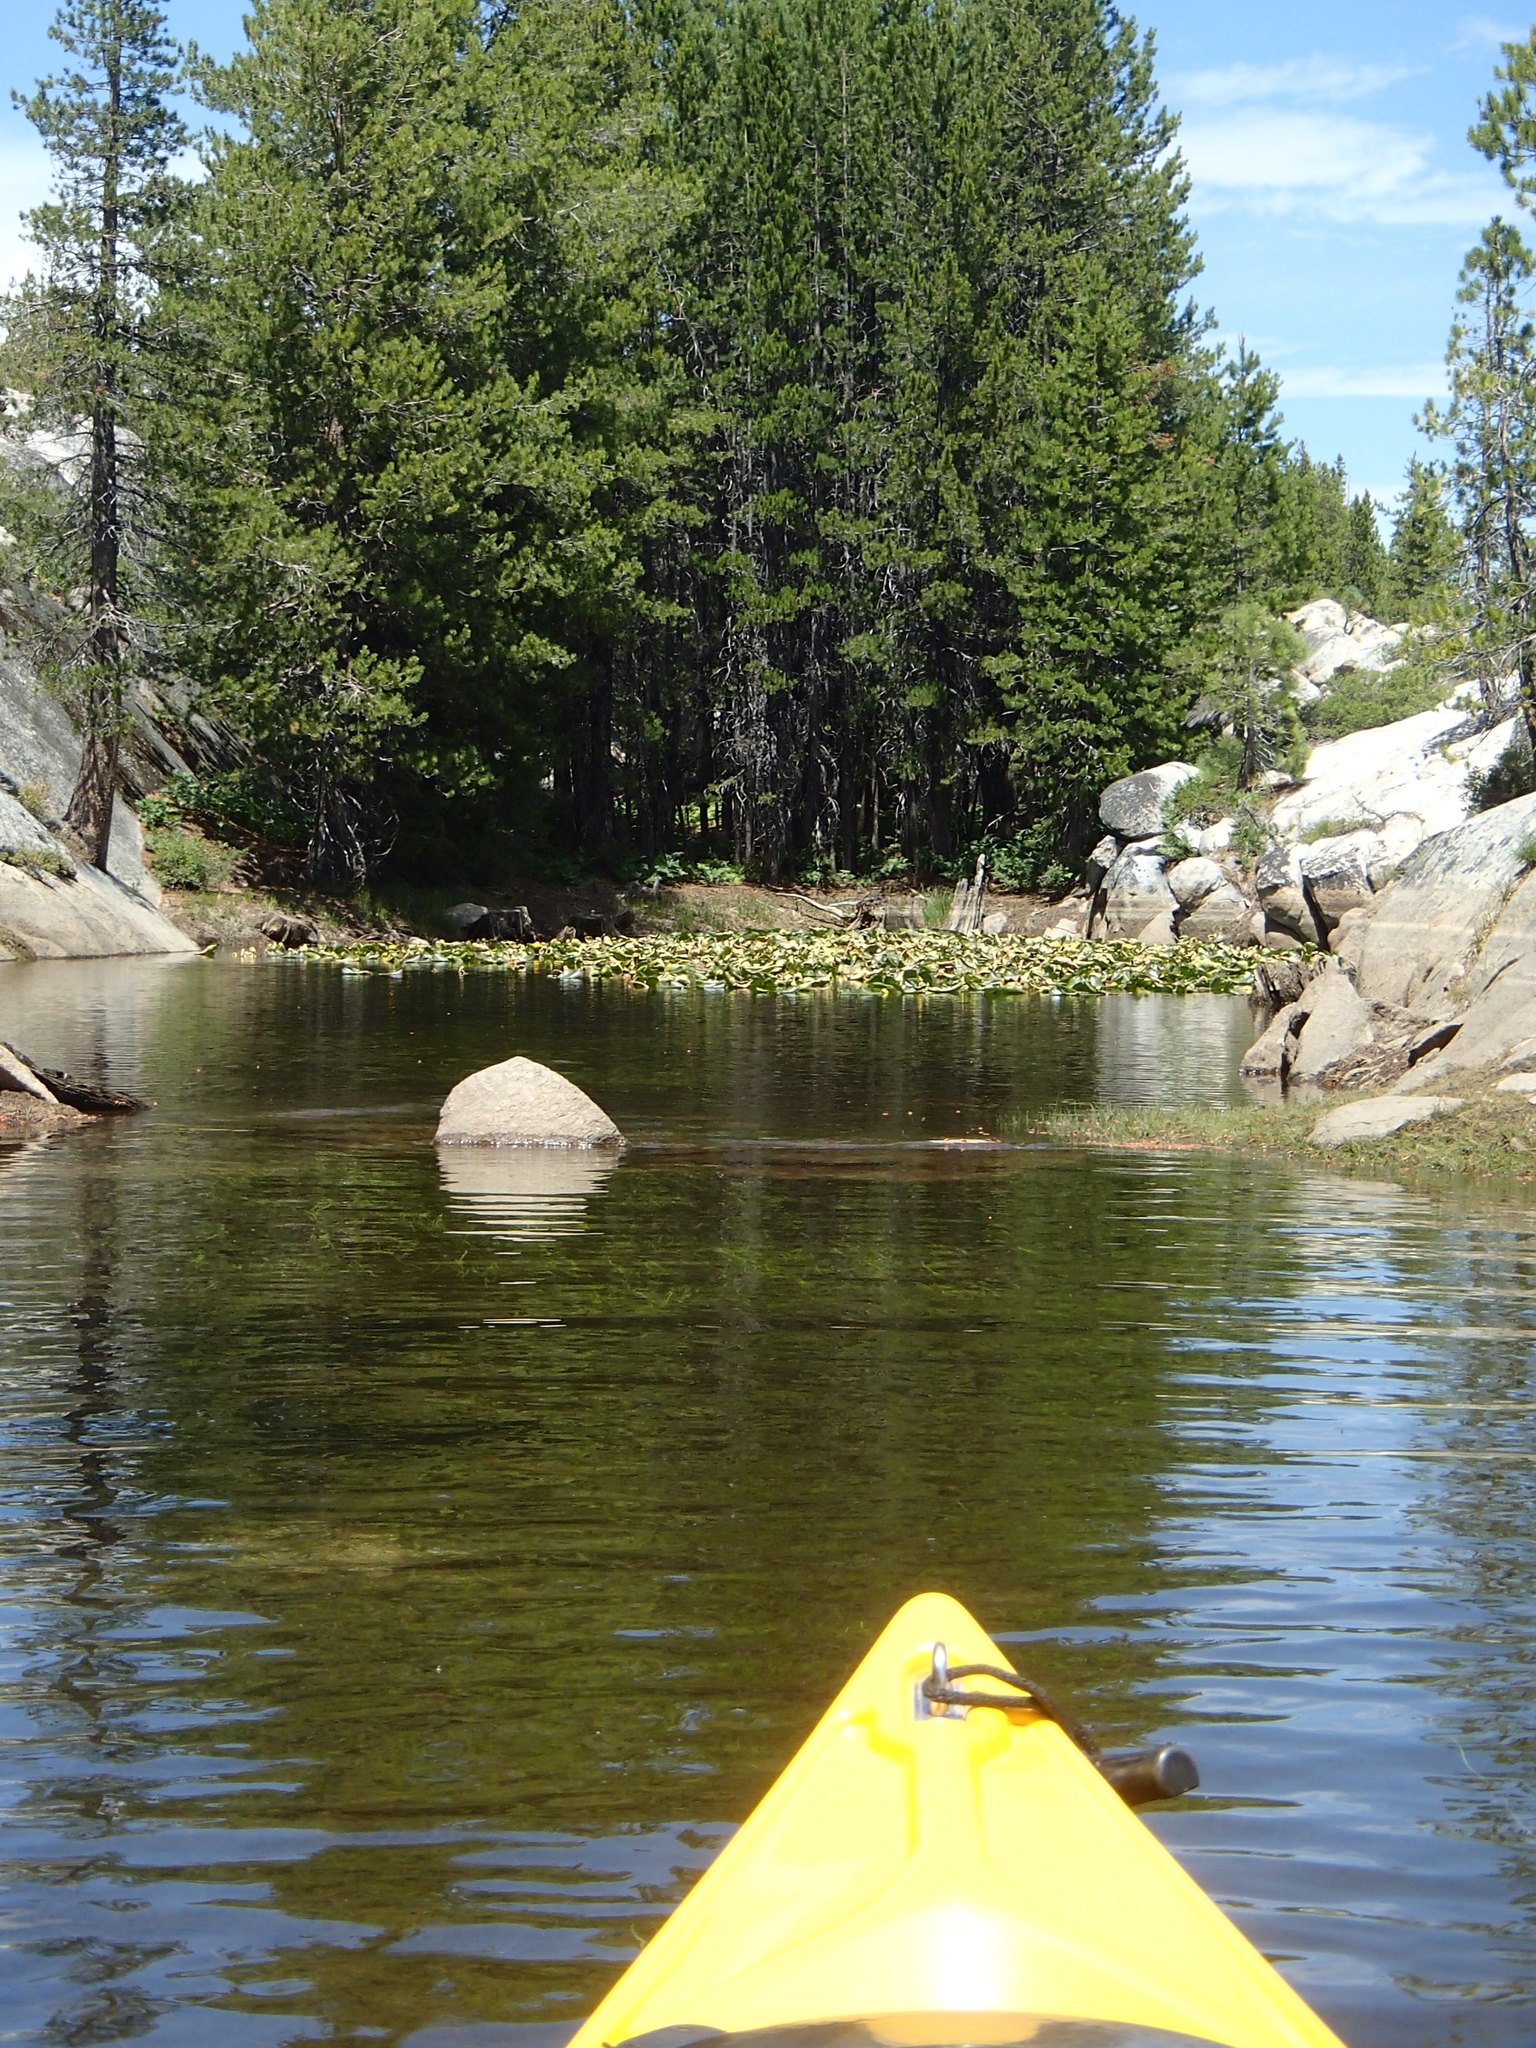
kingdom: Plantae
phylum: Tracheophyta
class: Magnoliopsida
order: Nymphaeales
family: Nymphaeaceae
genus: Nuphar
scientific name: Nuphar polysepala
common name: Rocky mountain cow-lily
